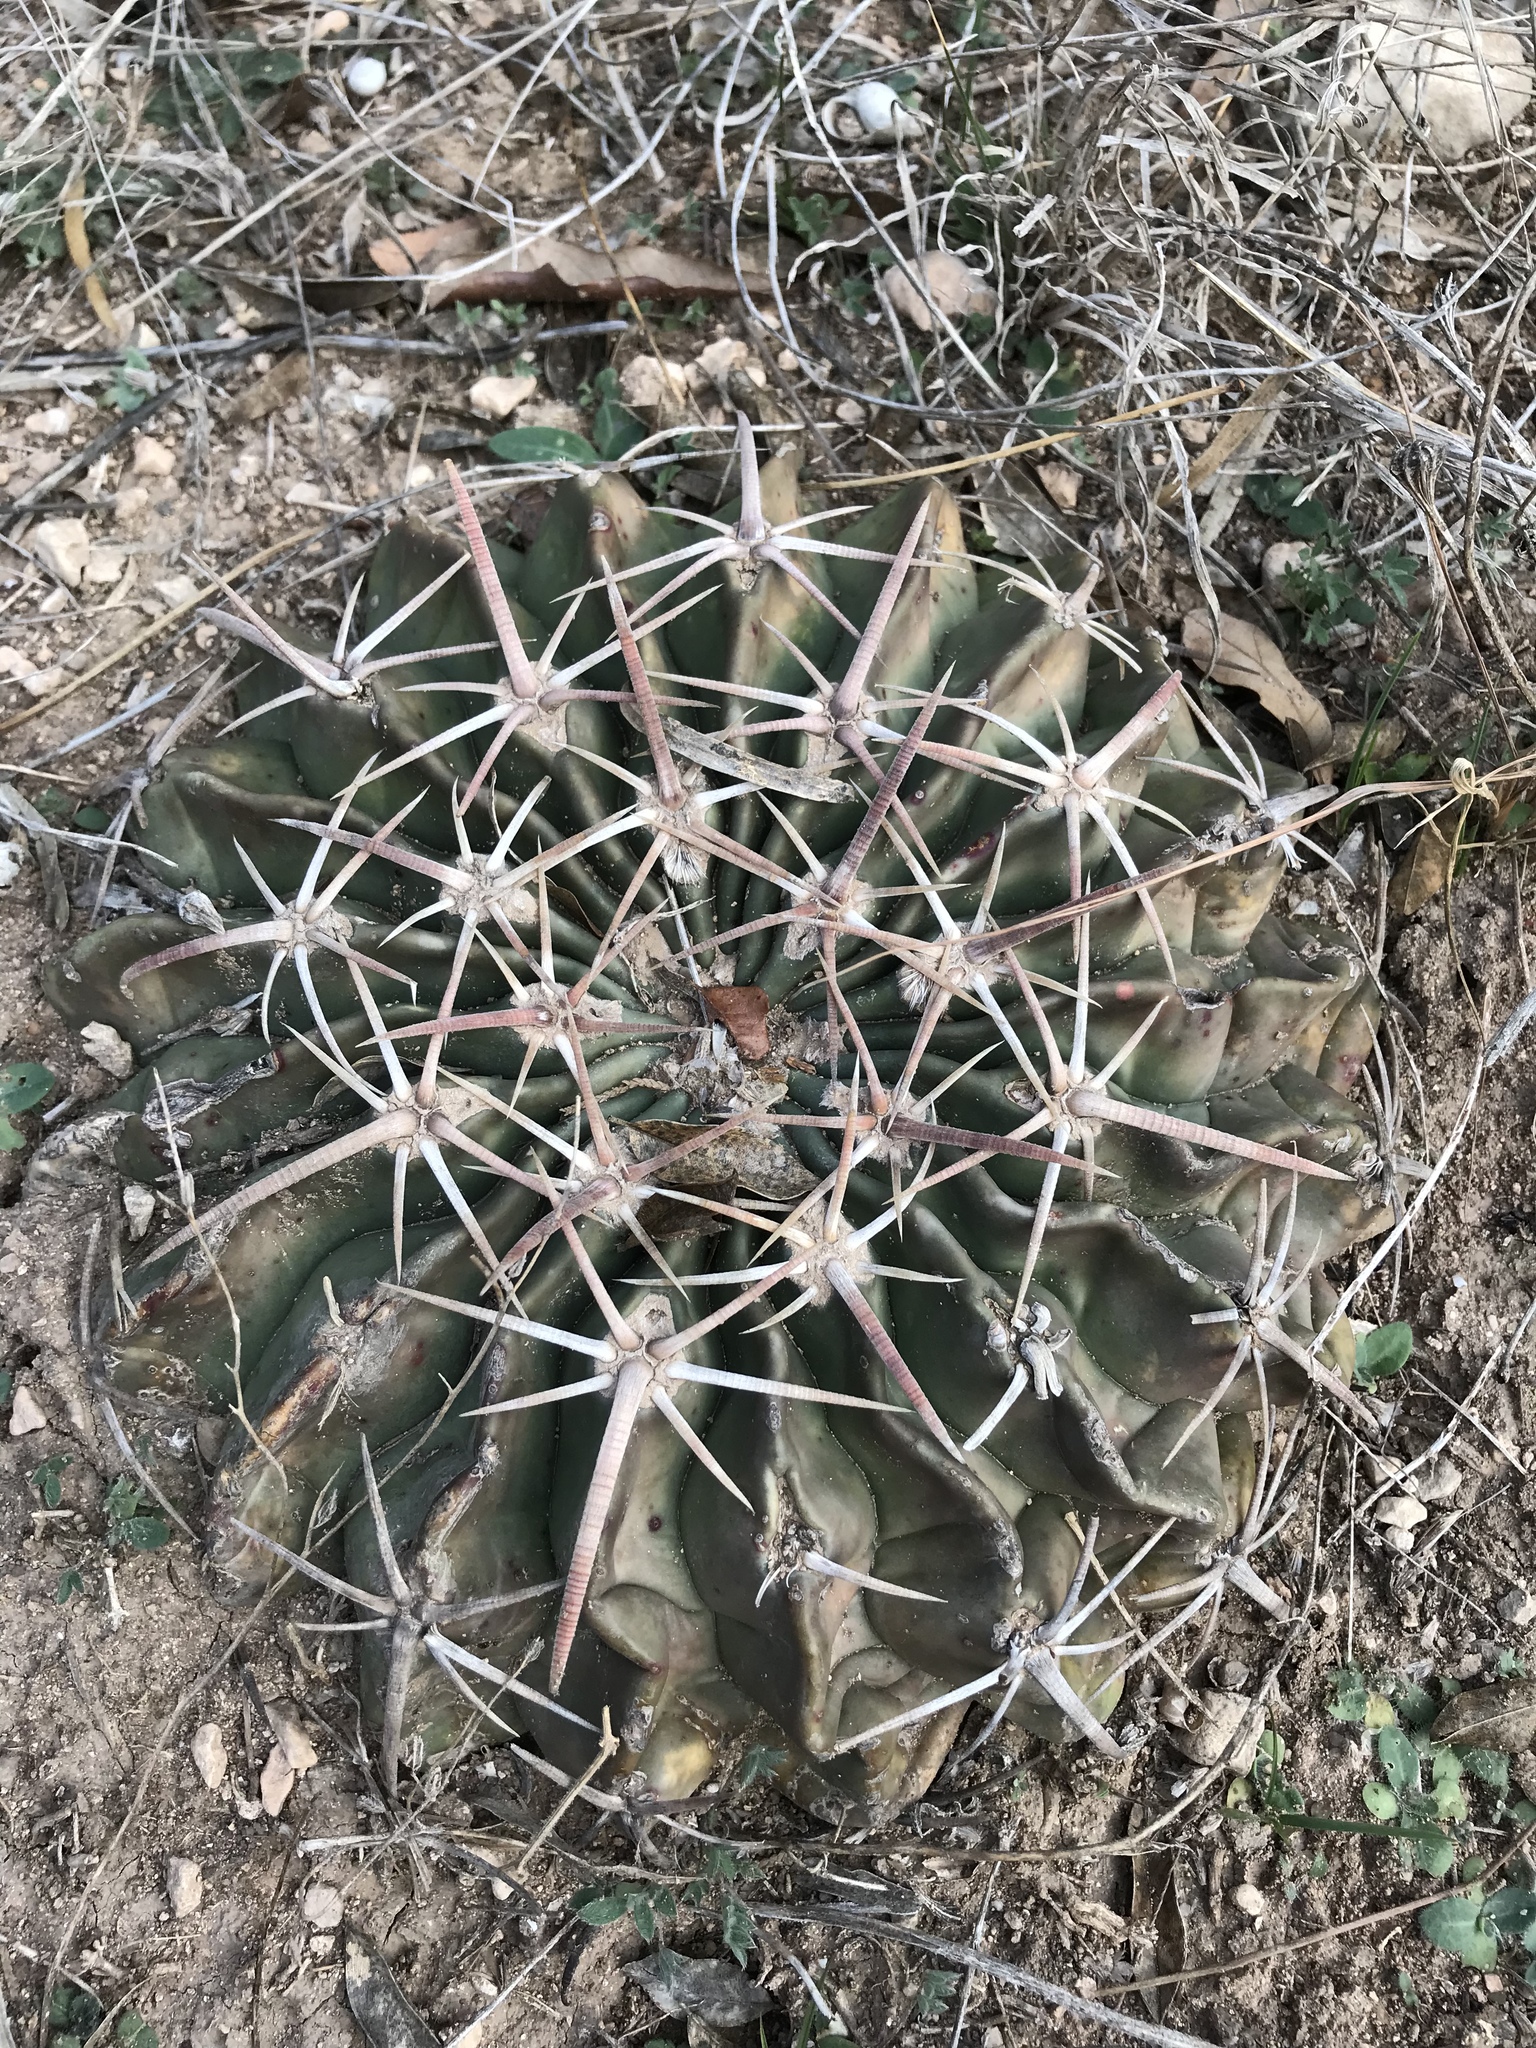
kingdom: Plantae
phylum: Tracheophyta
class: Magnoliopsida
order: Caryophyllales
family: Cactaceae
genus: Echinocactus
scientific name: Echinocactus texensis
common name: Devil's pincushion
